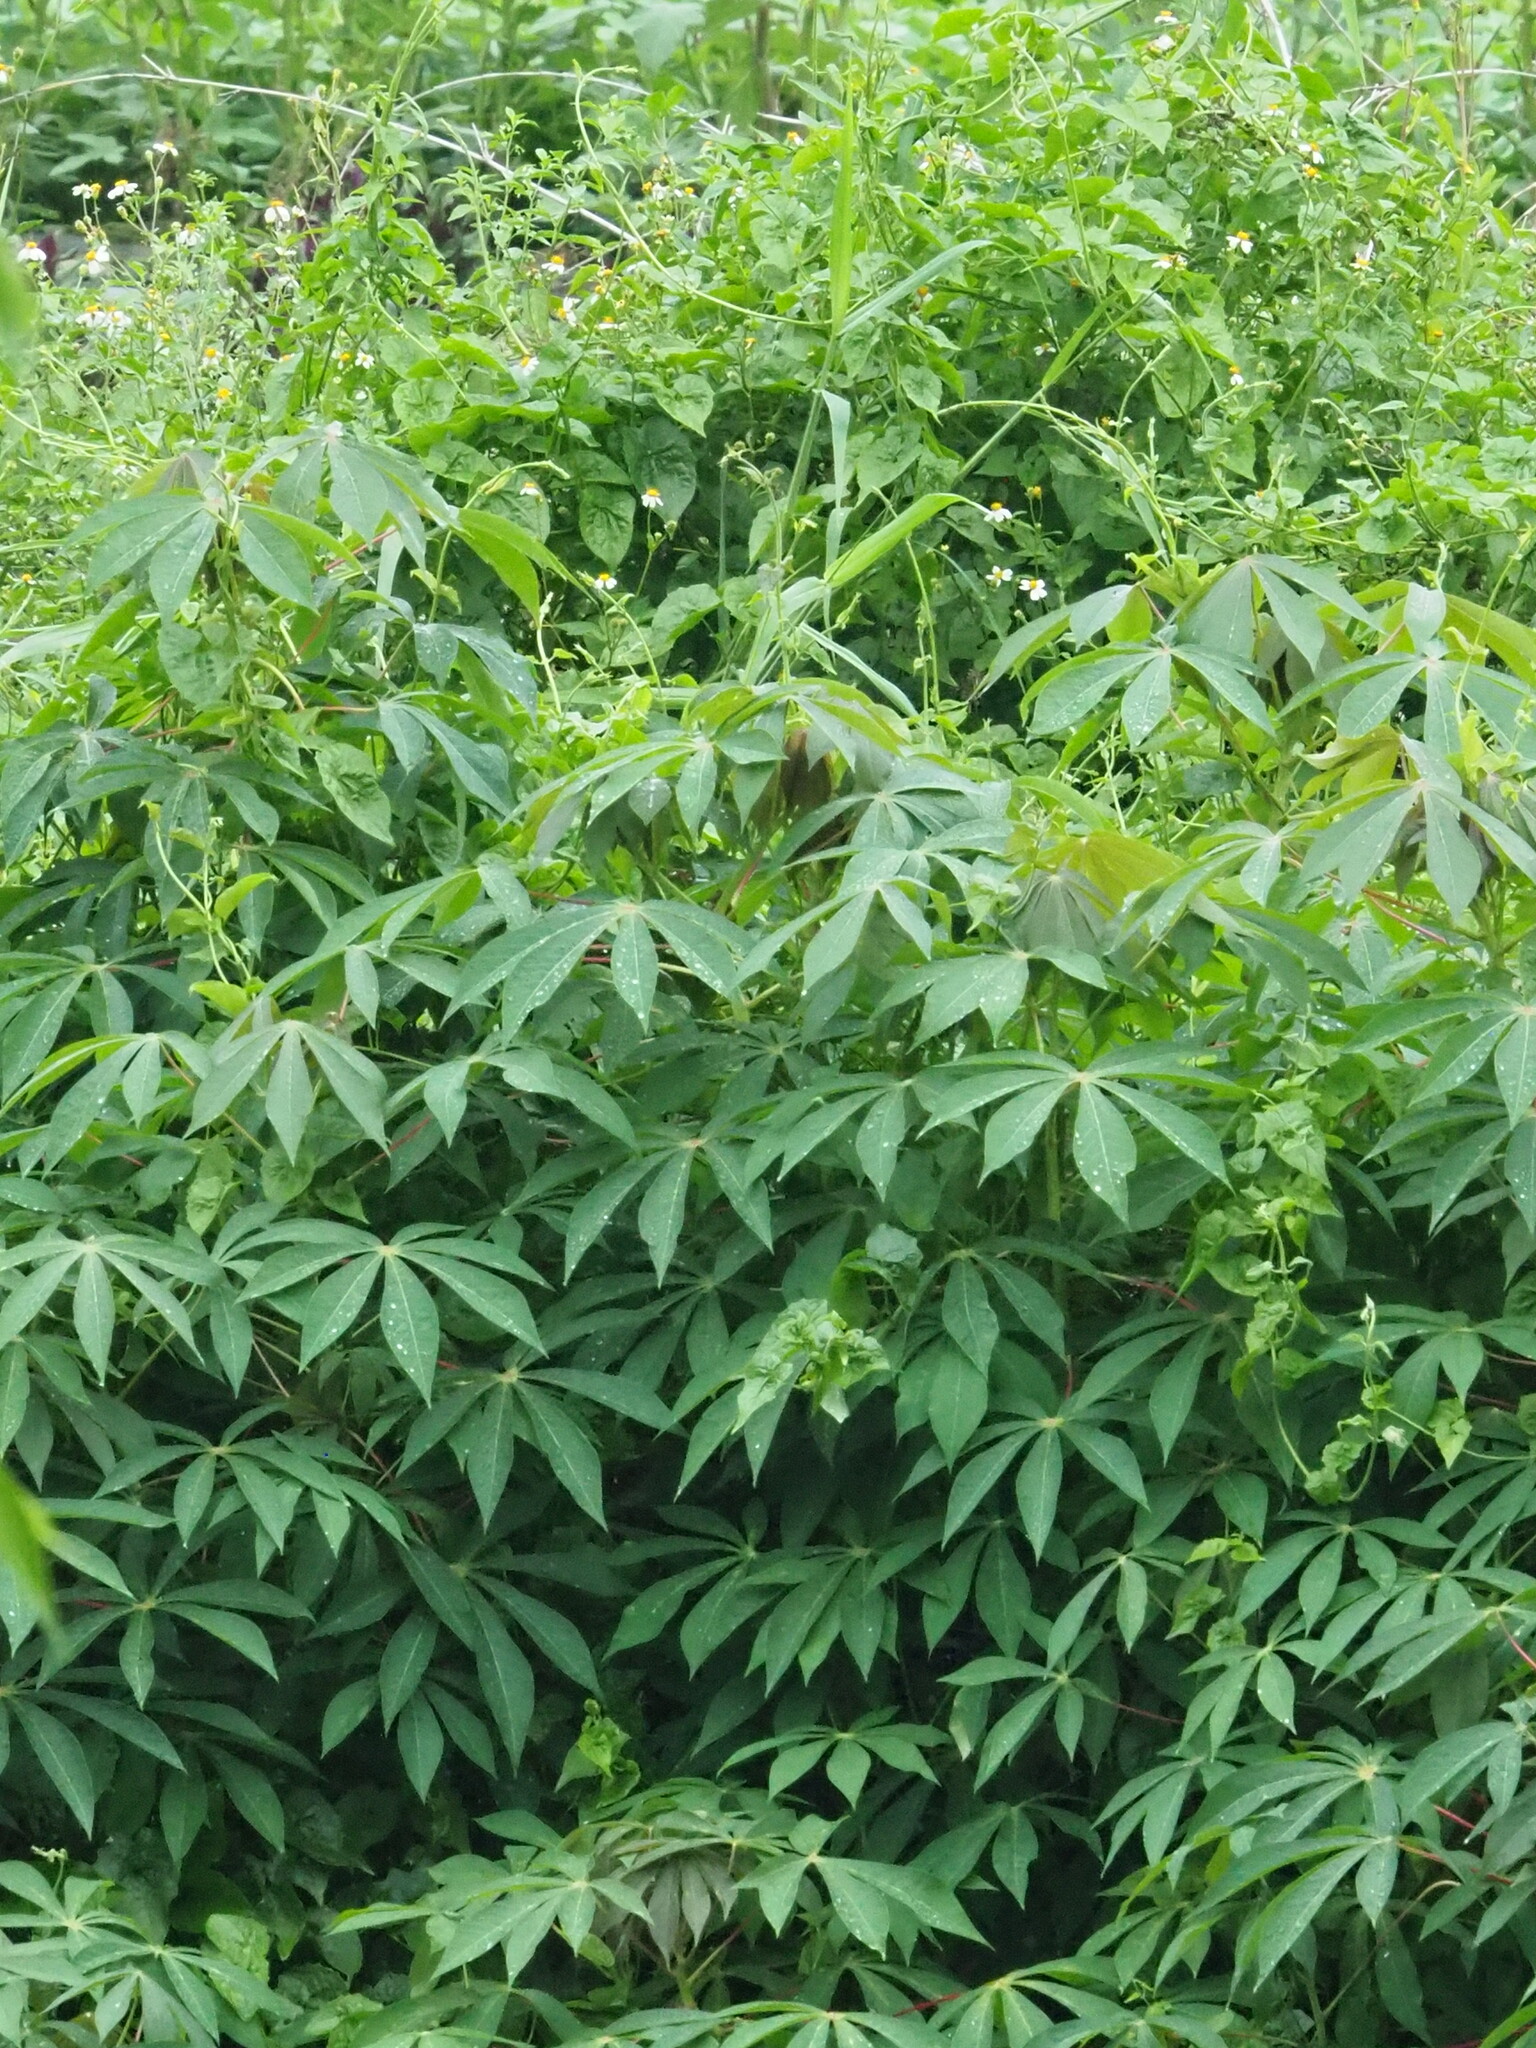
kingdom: Plantae
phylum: Tracheophyta
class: Magnoliopsida
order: Malpighiales
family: Euphorbiaceae
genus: Manihot
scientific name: Manihot esculenta
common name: Cassava
